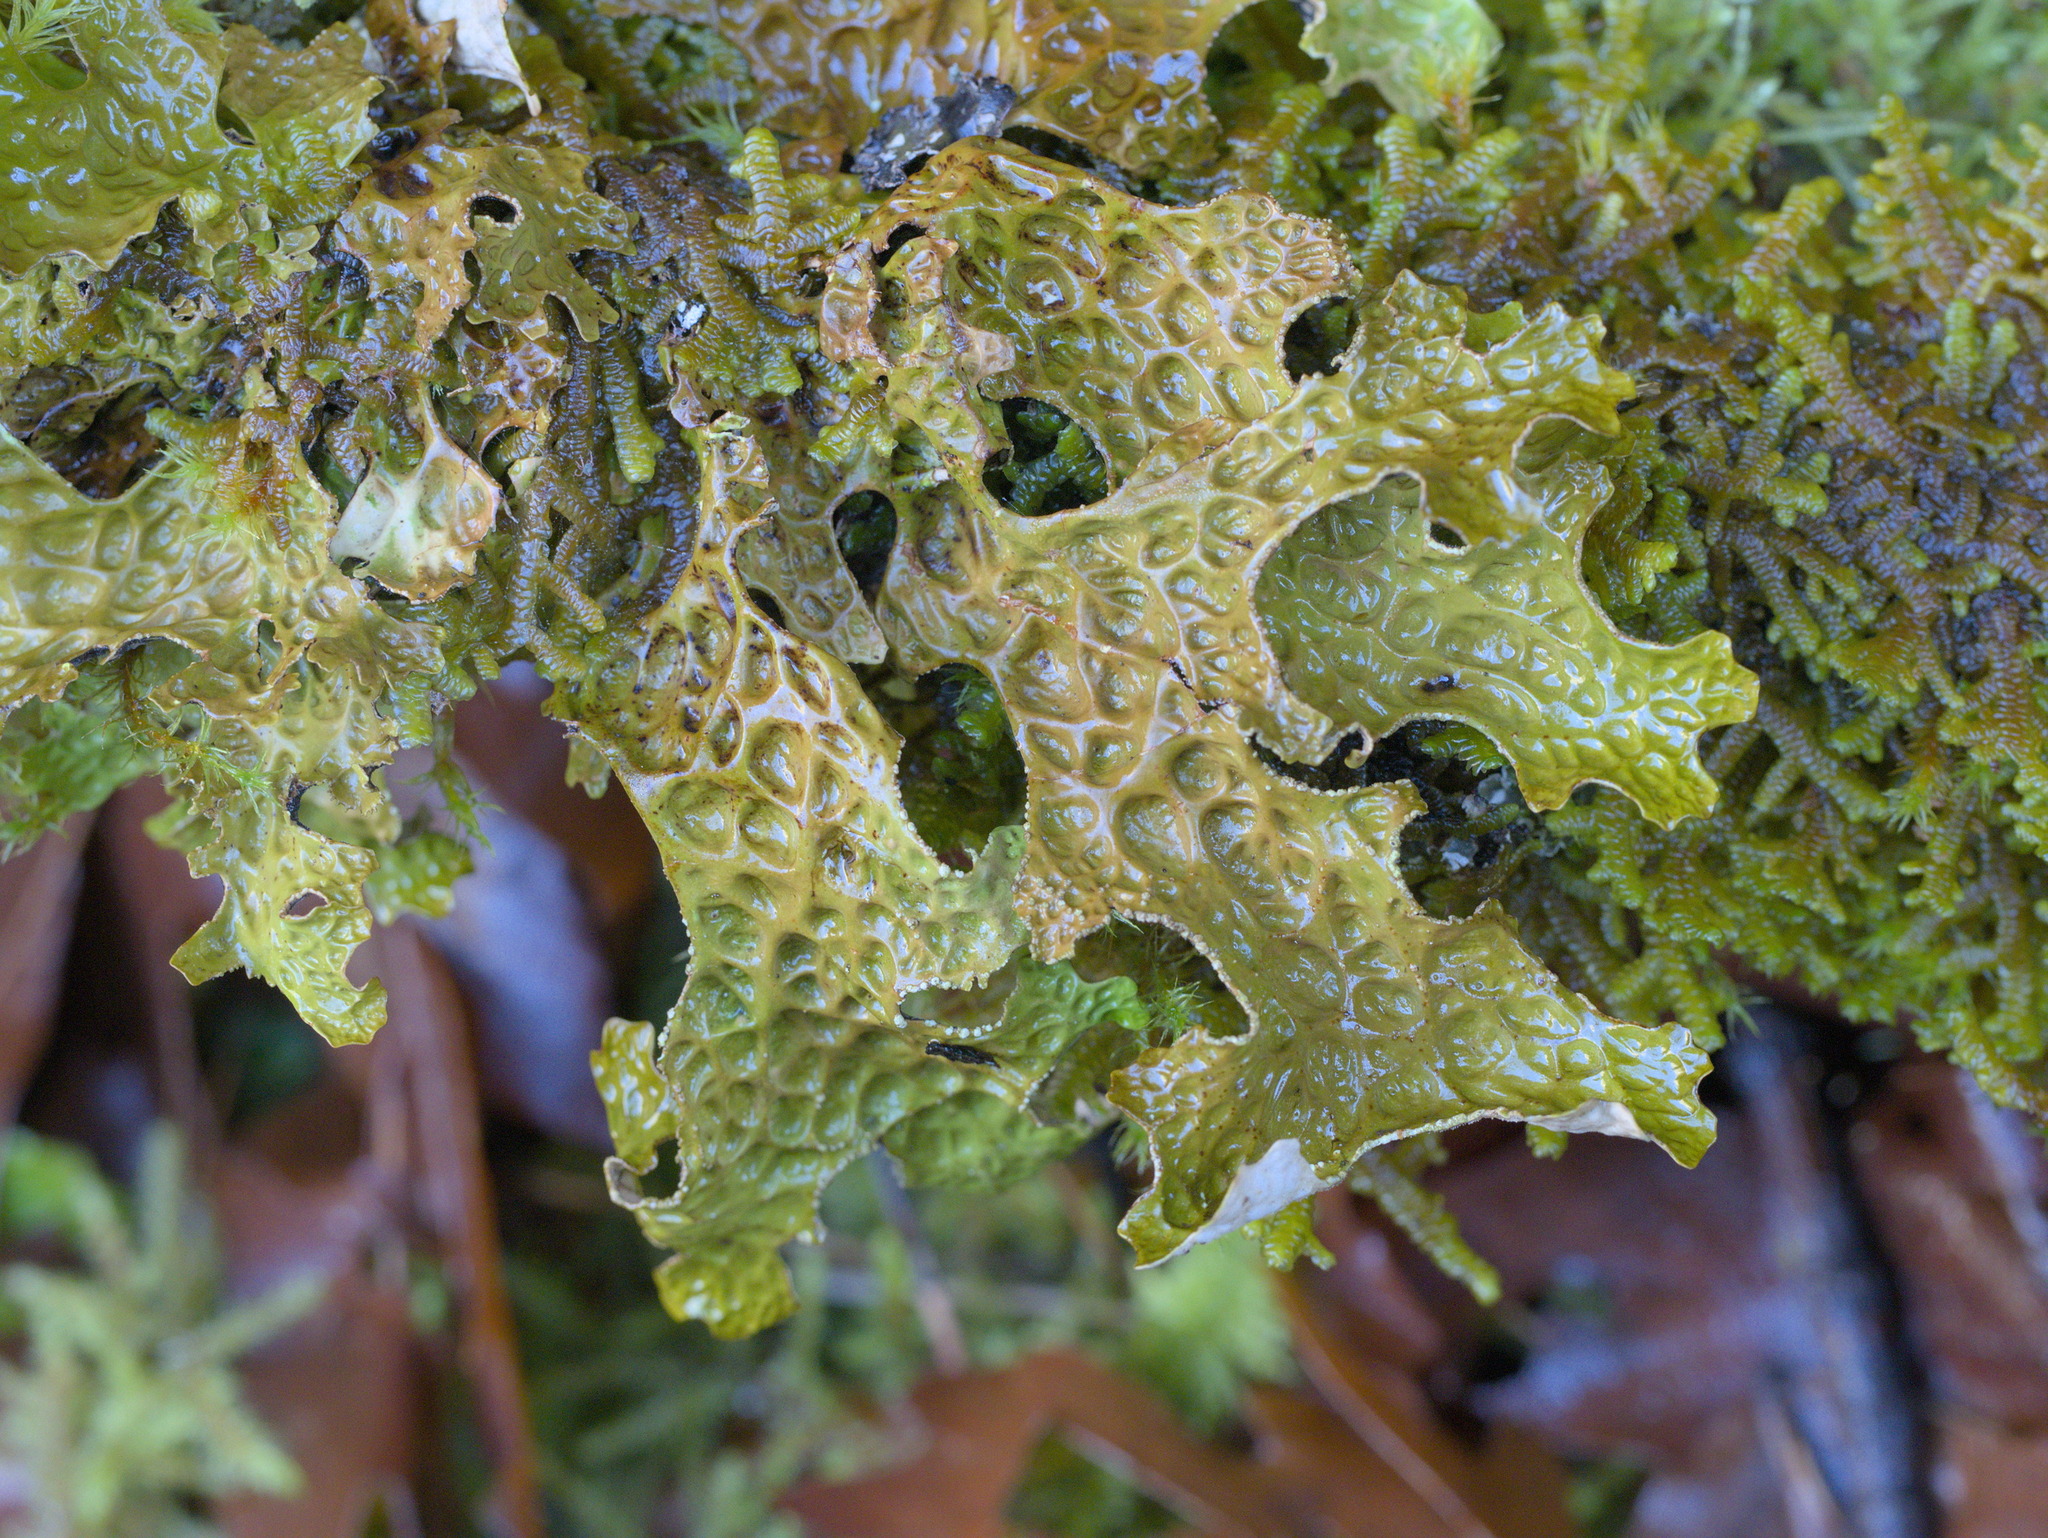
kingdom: Fungi
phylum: Ascomycota
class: Lecanoromycetes
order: Peltigerales
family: Lobariaceae
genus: Lobaria
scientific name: Lobaria pulmonaria
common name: Lungwort
